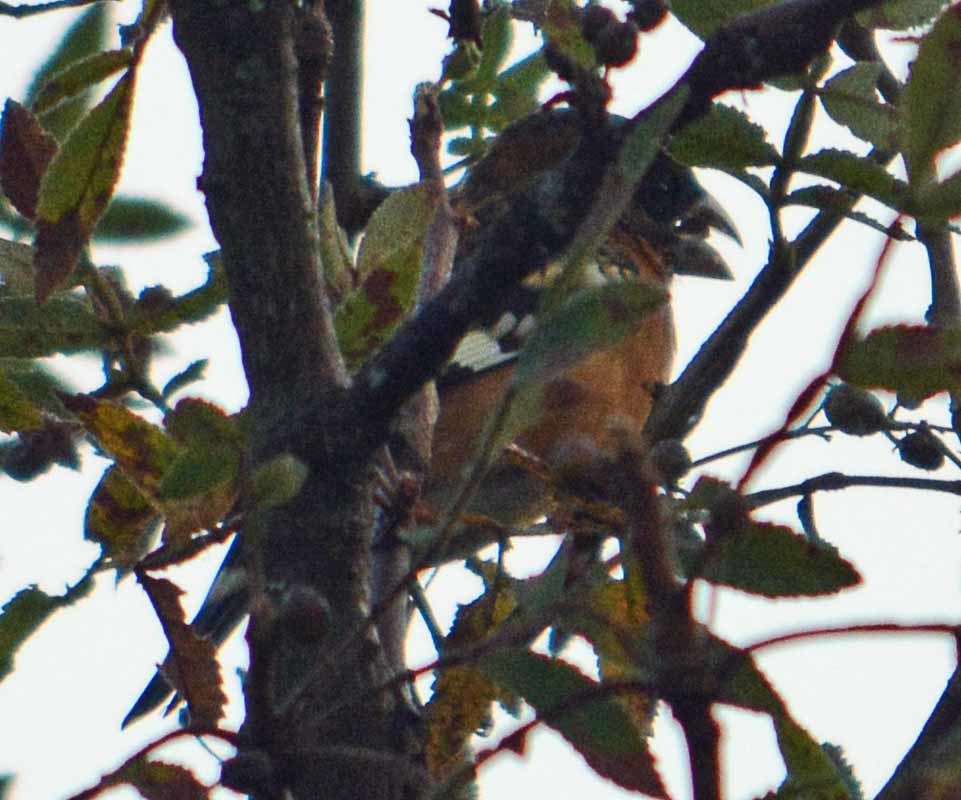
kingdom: Animalia
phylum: Chordata
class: Aves
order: Passeriformes
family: Cardinalidae
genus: Pheucticus
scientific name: Pheucticus melanocephalus
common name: Black-headed grosbeak
